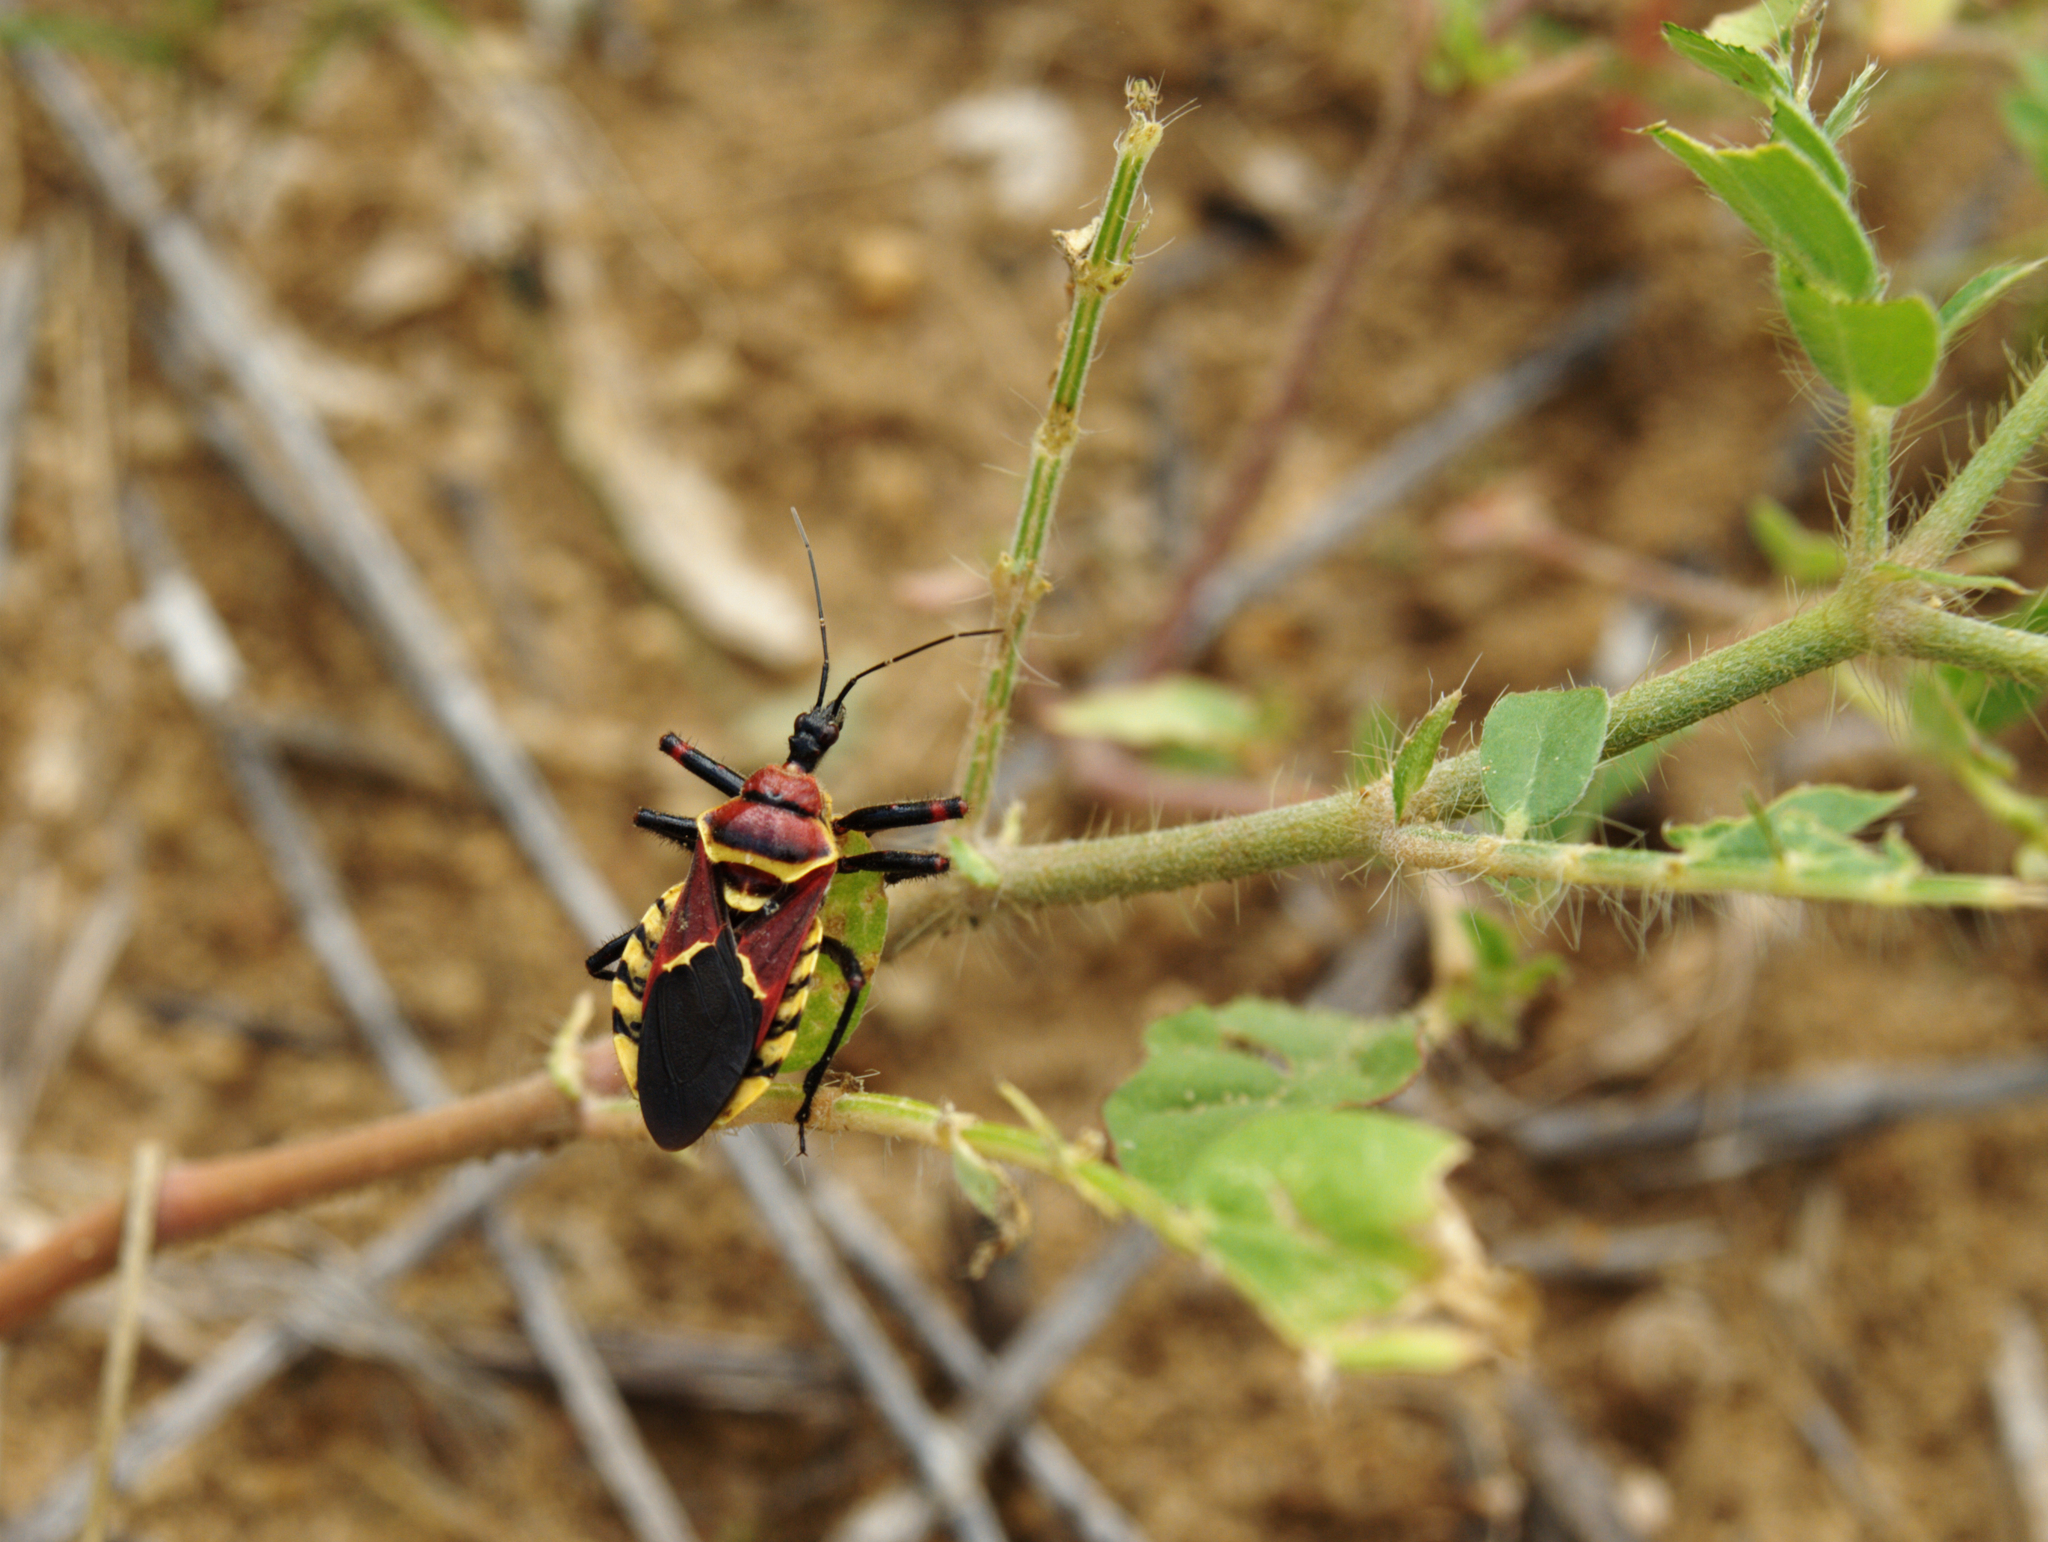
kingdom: Animalia
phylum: Arthropoda
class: Insecta
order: Hemiptera
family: Reduviidae
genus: Apiomerus
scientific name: Apiomerus flaviventris
